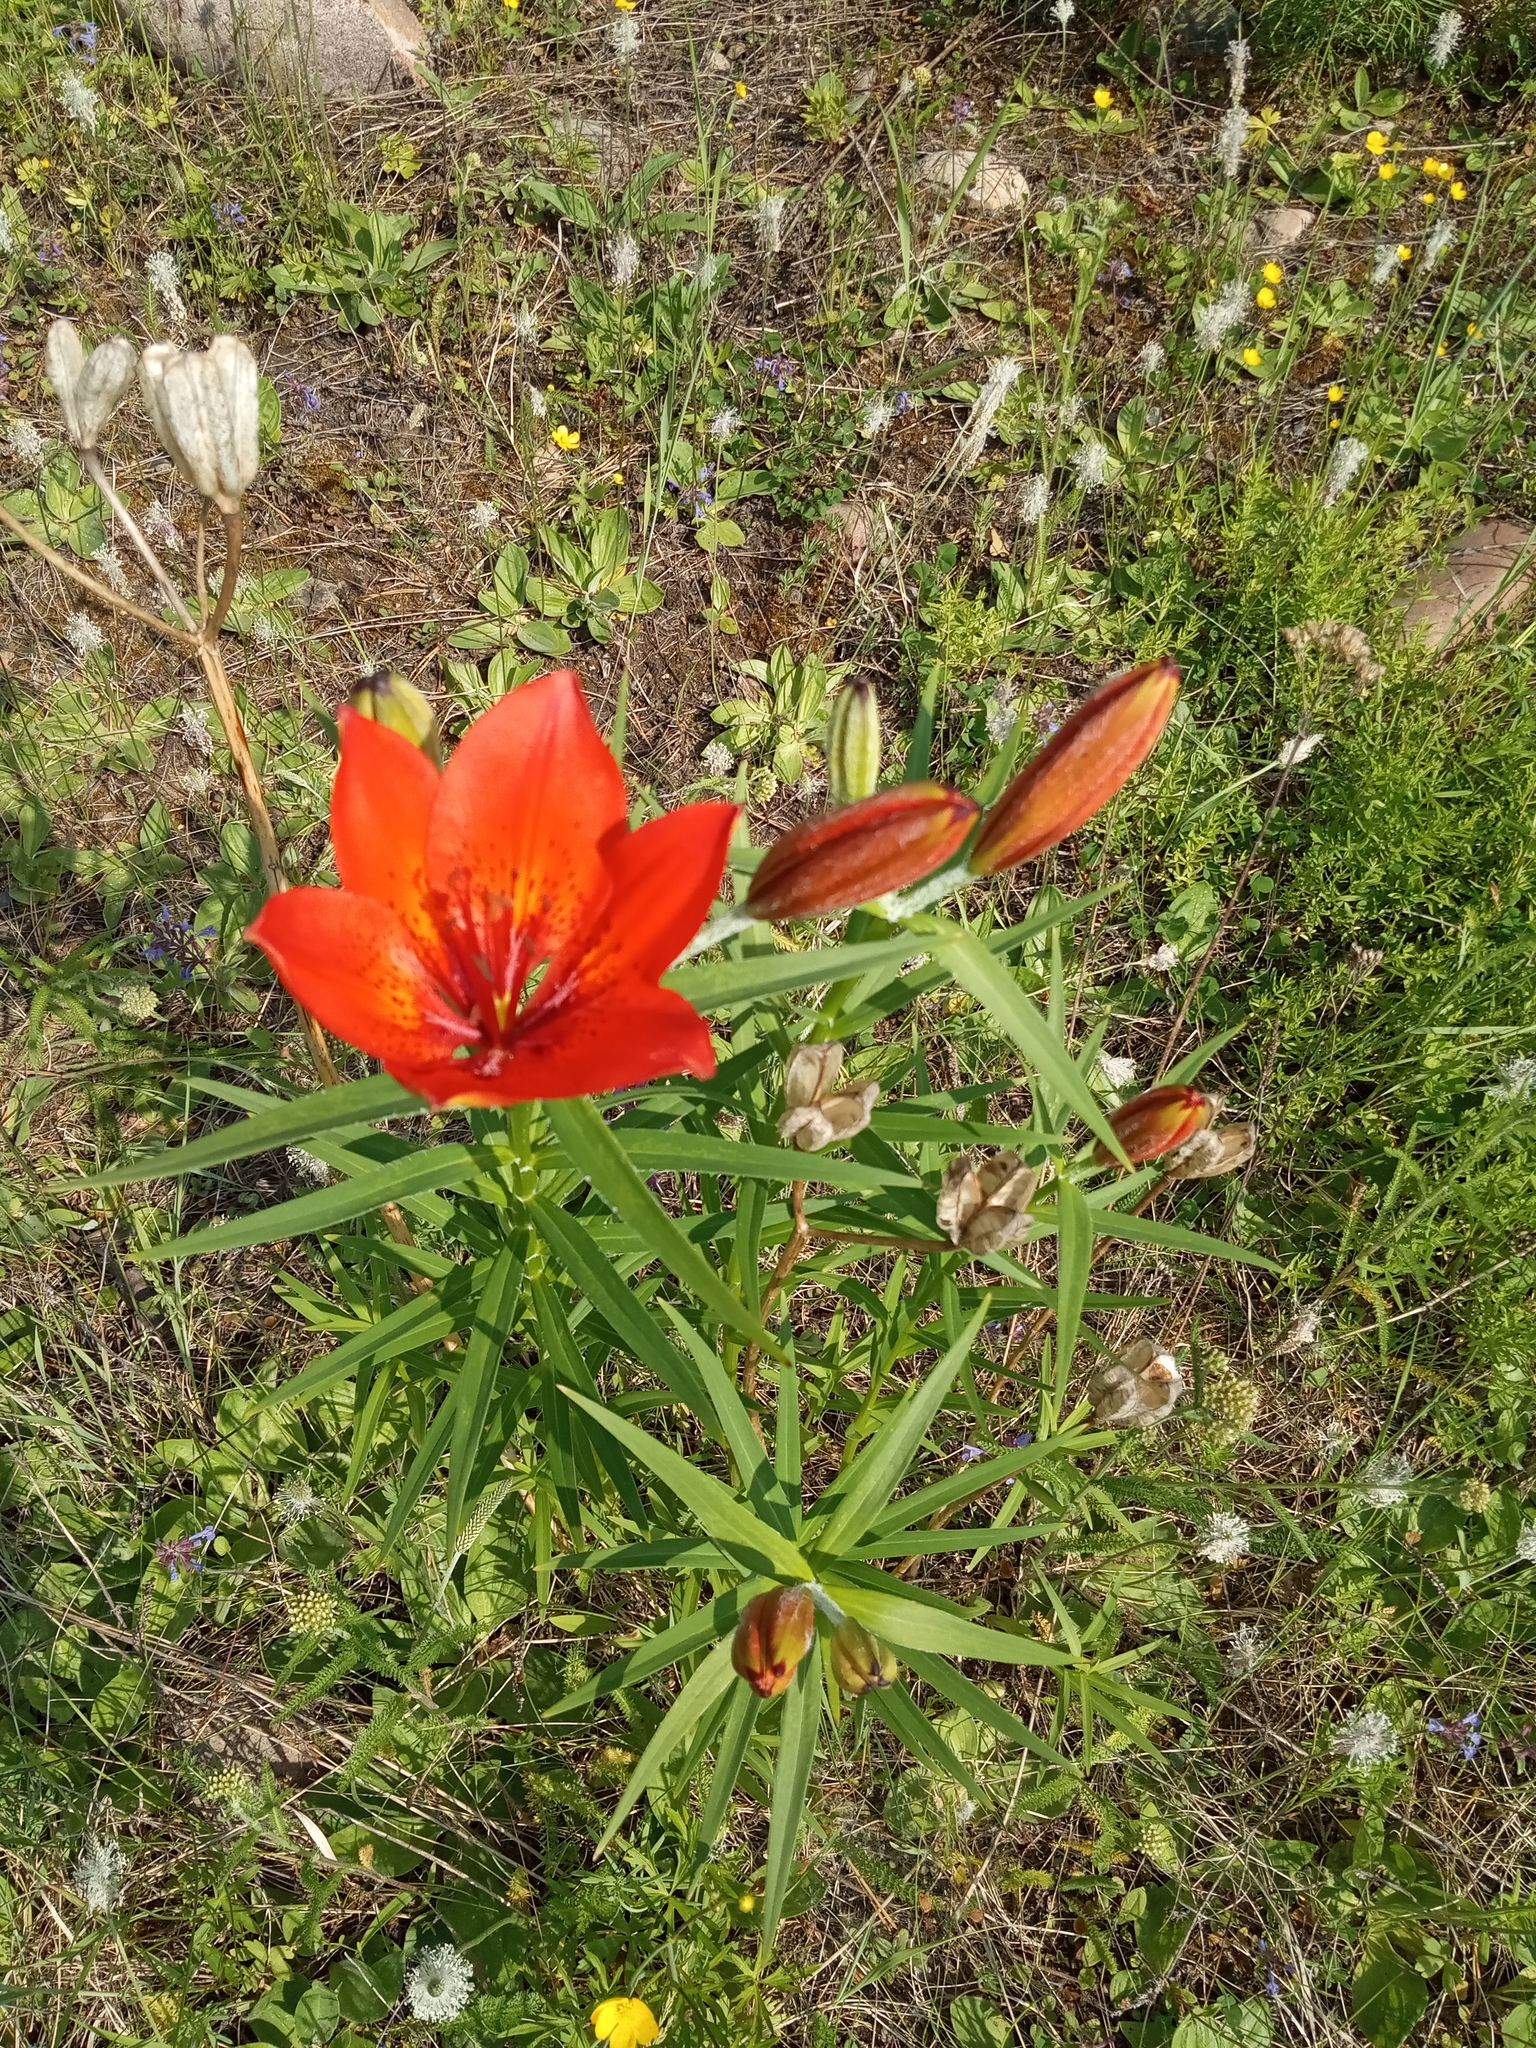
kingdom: Plantae
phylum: Tracheophyta
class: Liliopsida
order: Liliales
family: Liliaceae
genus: Lilium
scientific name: Lilium pensylvanicum
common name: Candlestick lily
